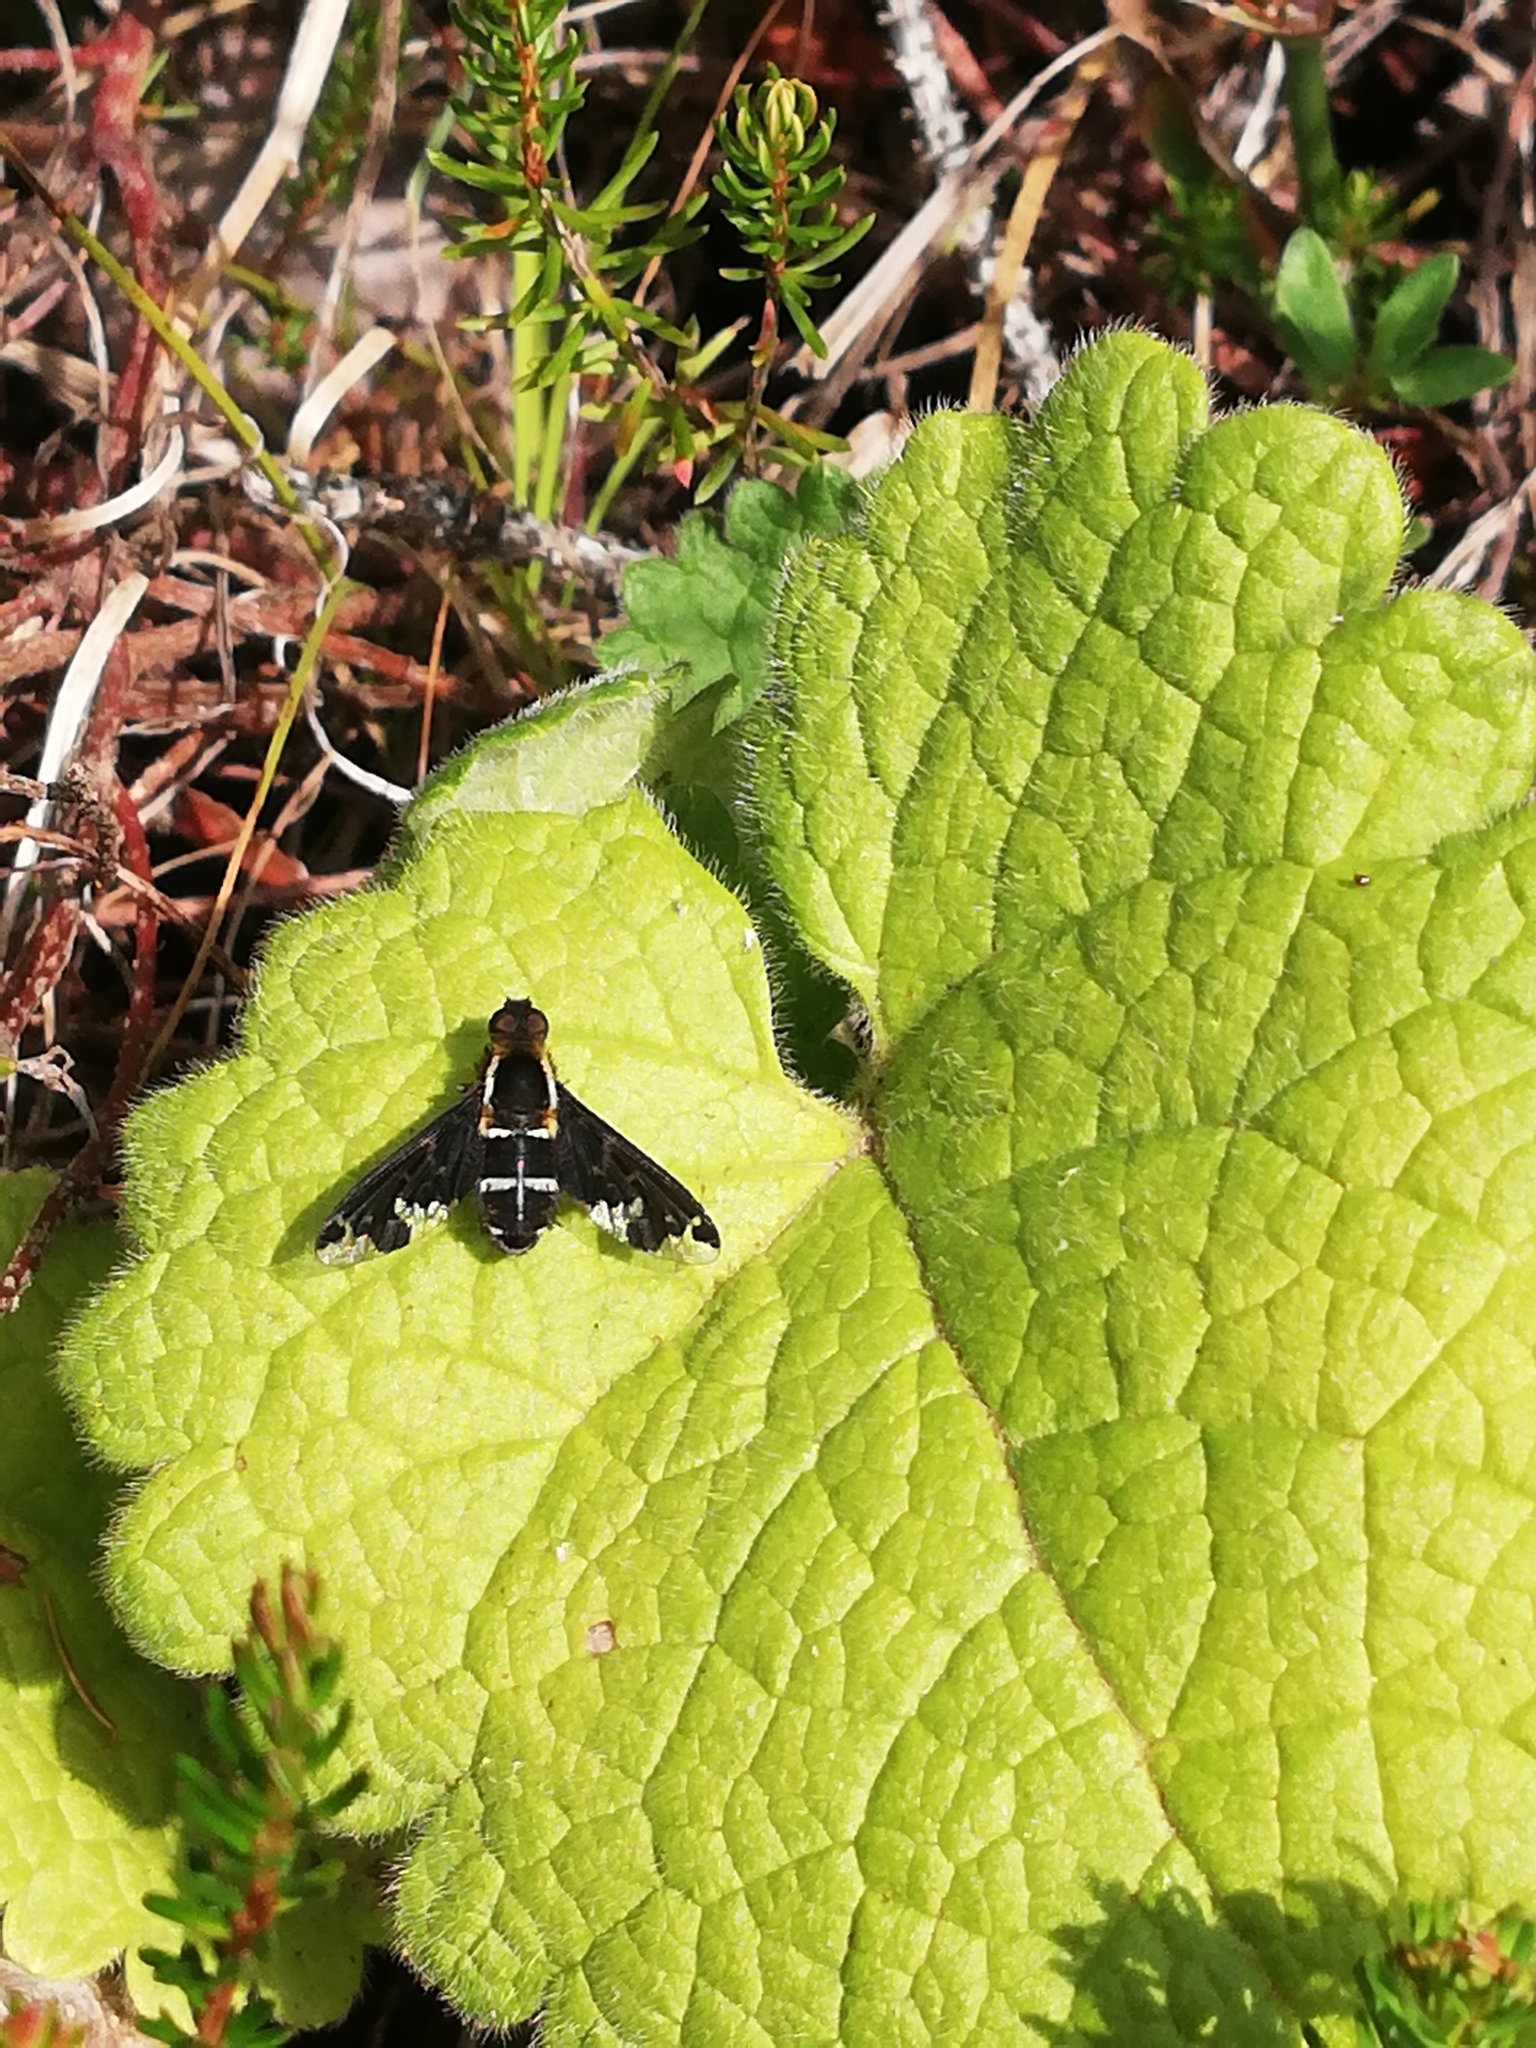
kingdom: Animalia
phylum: Arthropoda
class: Insecta
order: Diptera
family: Bombyliidae
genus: Hemipenthes
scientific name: Hemipenthes maura
